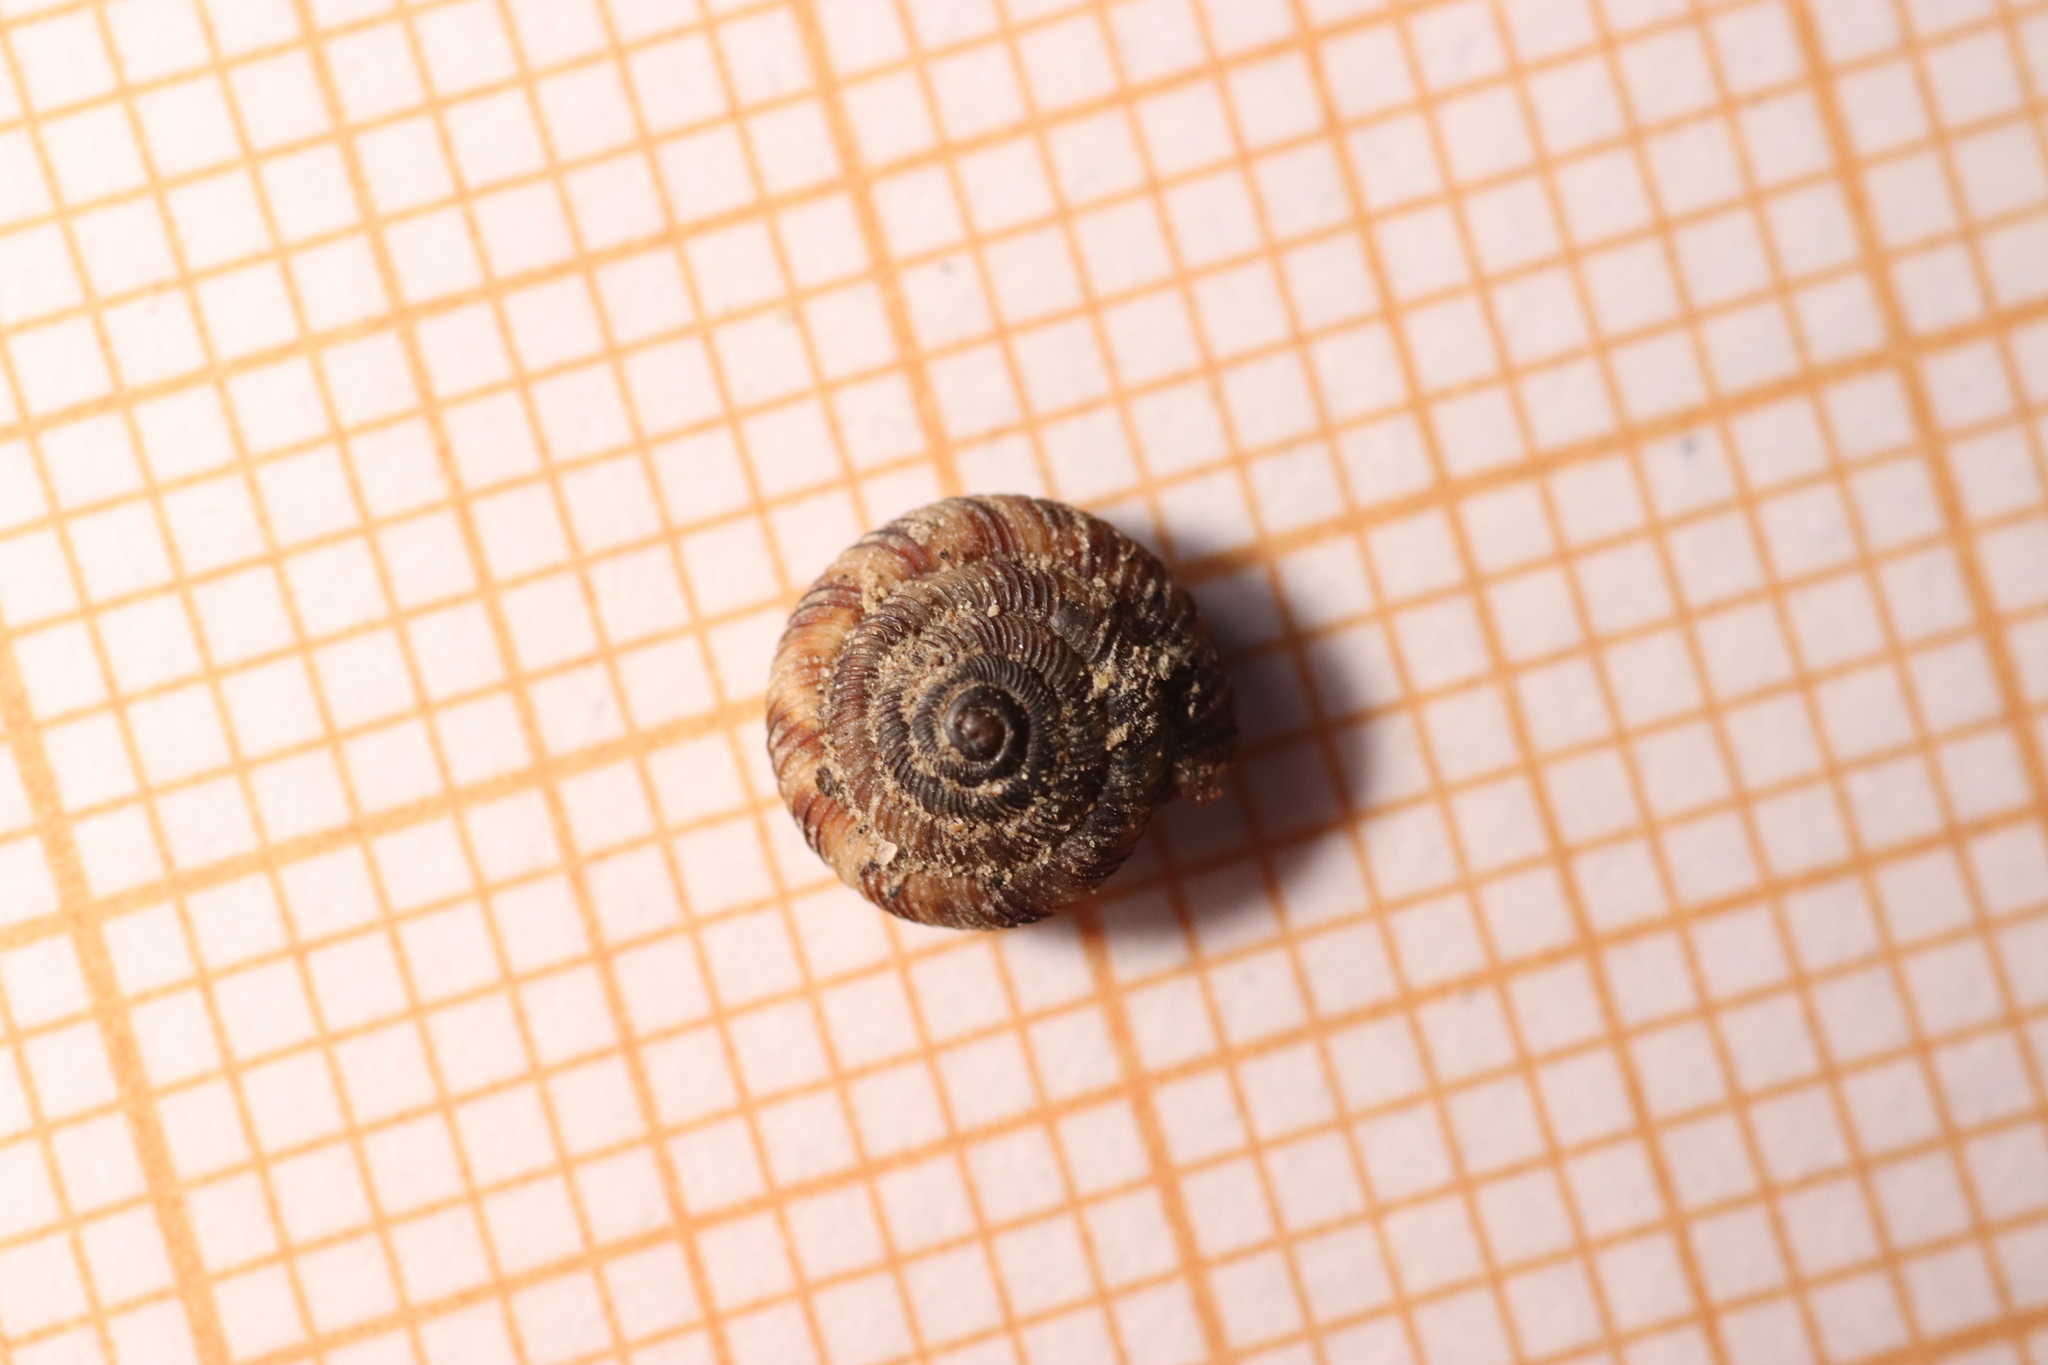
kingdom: Animalia
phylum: Mollusca
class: Gastropoda
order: Stylommatophora
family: Discidae
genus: Discus
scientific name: Discus rotundatus
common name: Rounded snail
